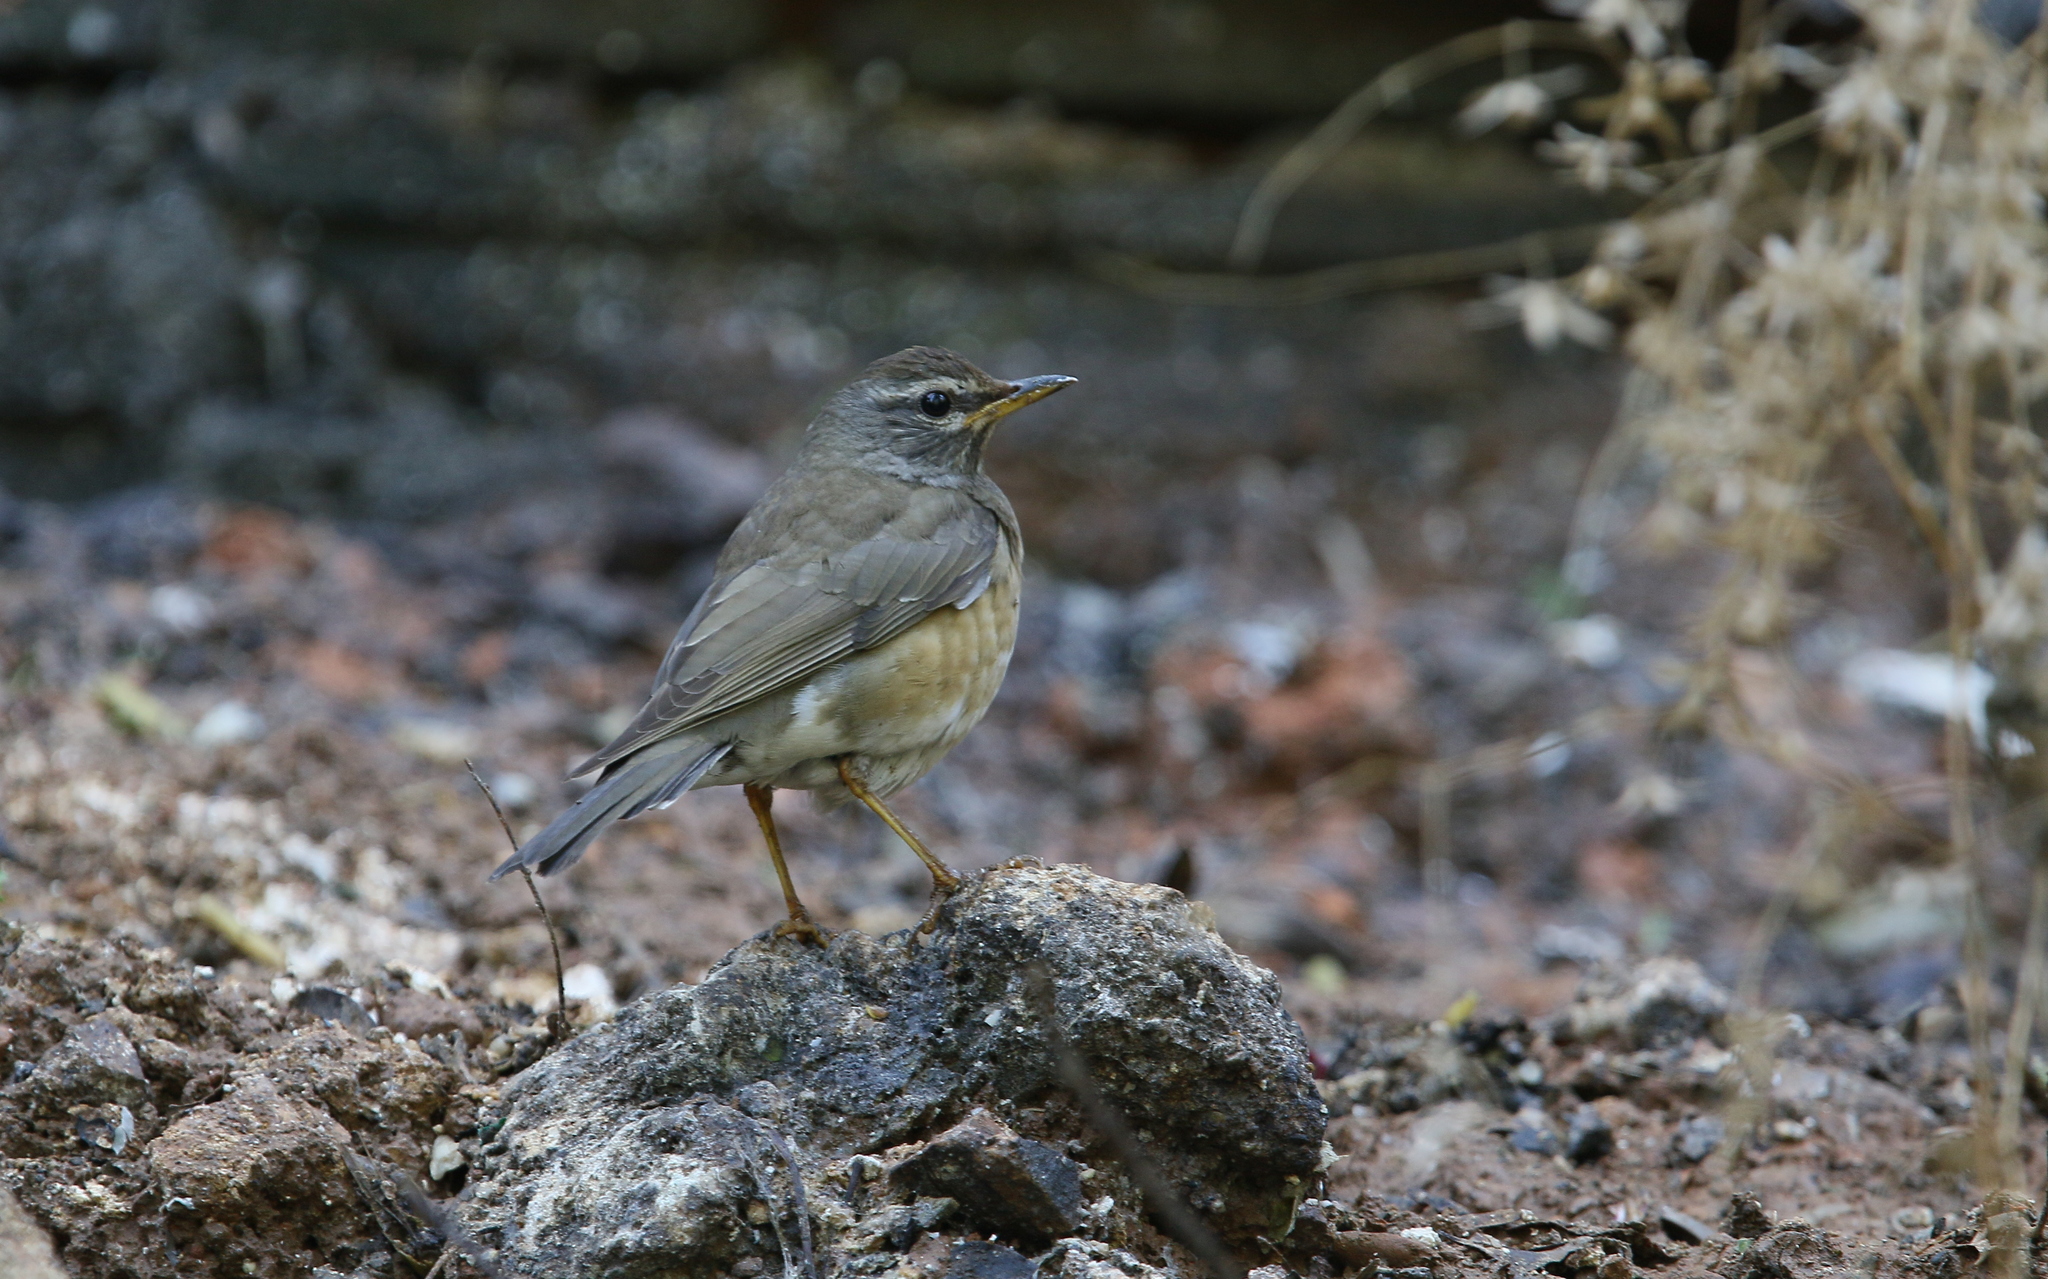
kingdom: Animalia
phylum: Chordata
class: Aves
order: Passeriformes
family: Turdidae
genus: Turdus
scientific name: Turdus obscurus
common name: Eyebrowed thrush
